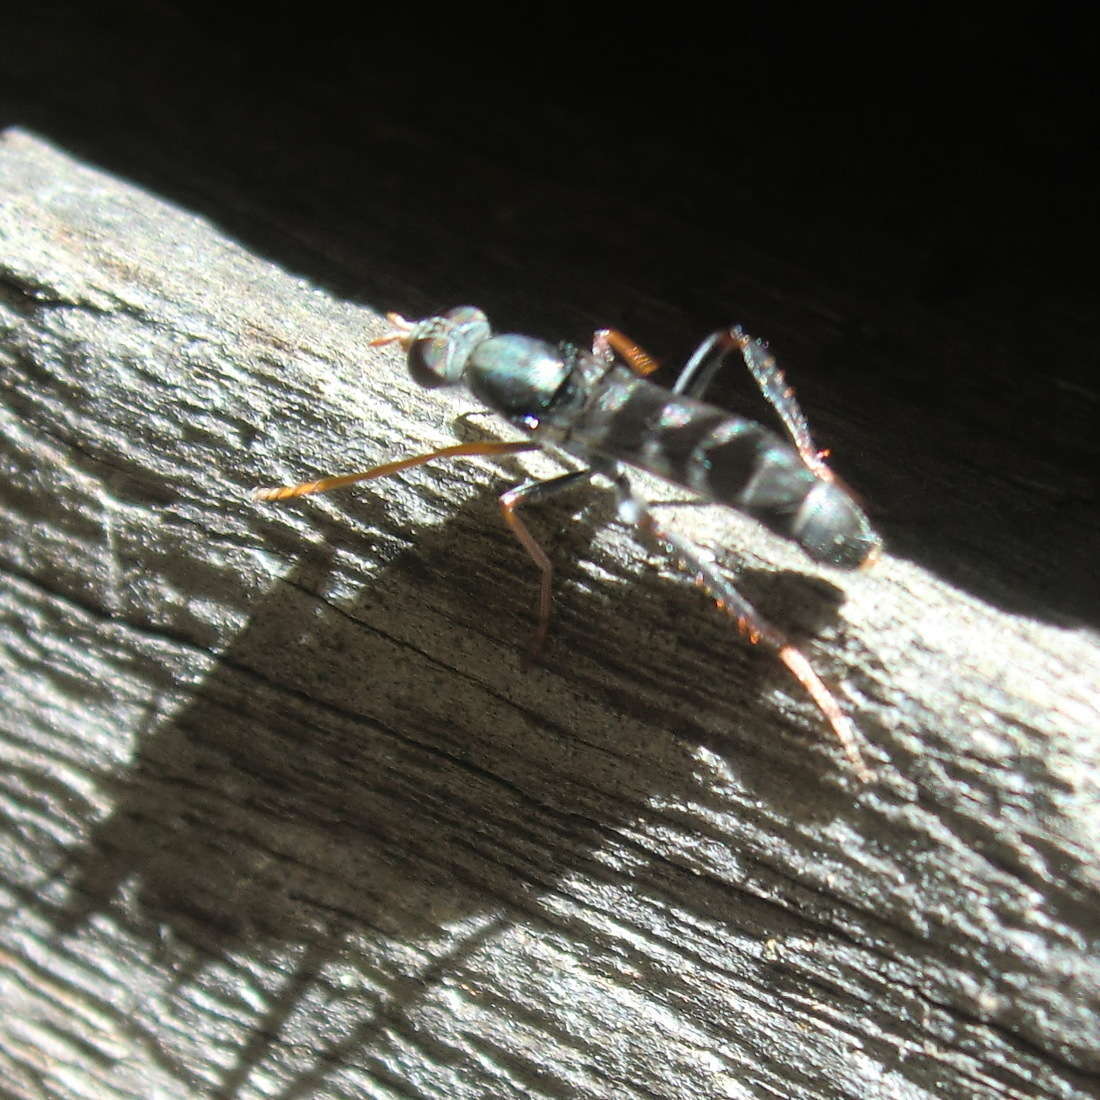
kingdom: Animalia
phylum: Arthropoda
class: Insecta
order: Diptera
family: Therevidae
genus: Acraspisoides
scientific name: Acraspisoides helviarta
